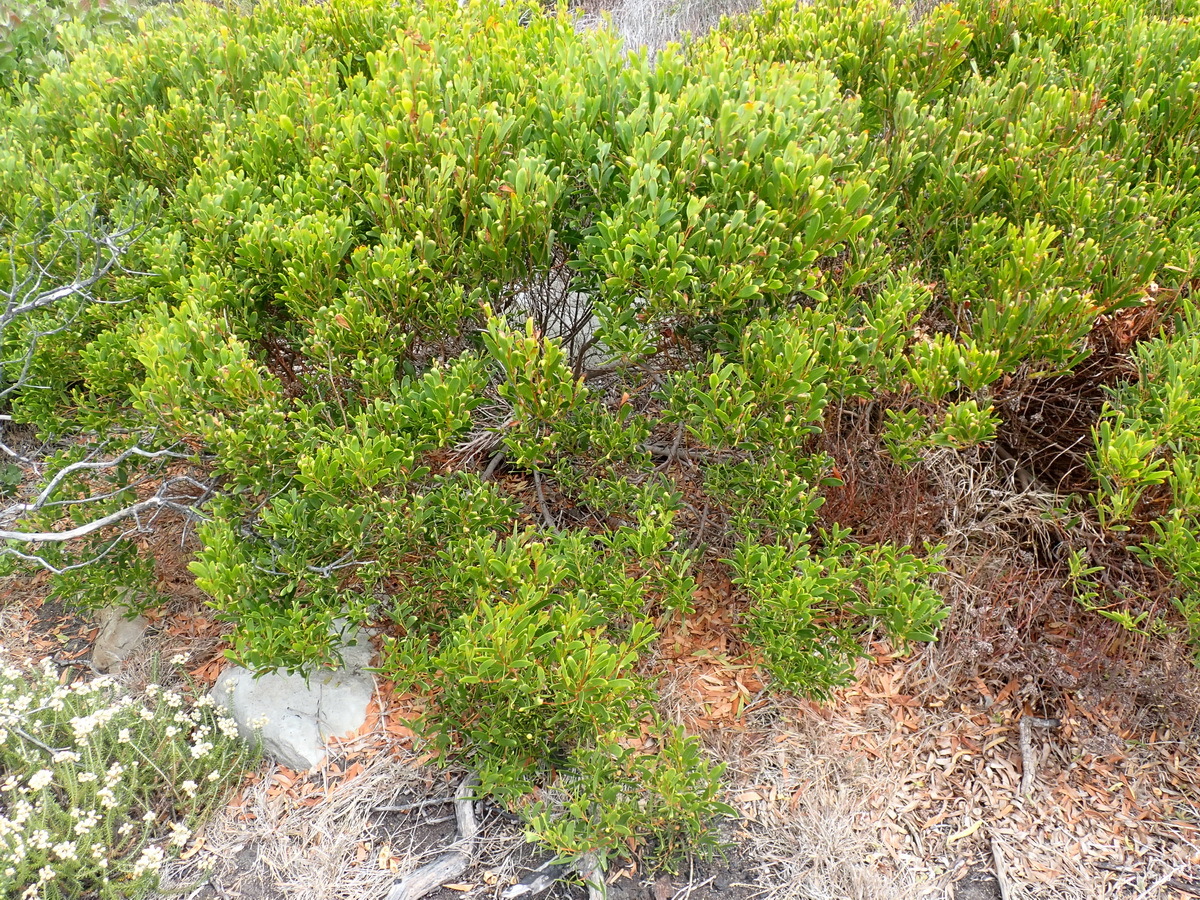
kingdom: Plantae
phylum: Tracheophyta
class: Magnoliopsida
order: Fabales
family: Fabaceae
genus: Acacia
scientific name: Acacia cyclops
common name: Coastal wattle
